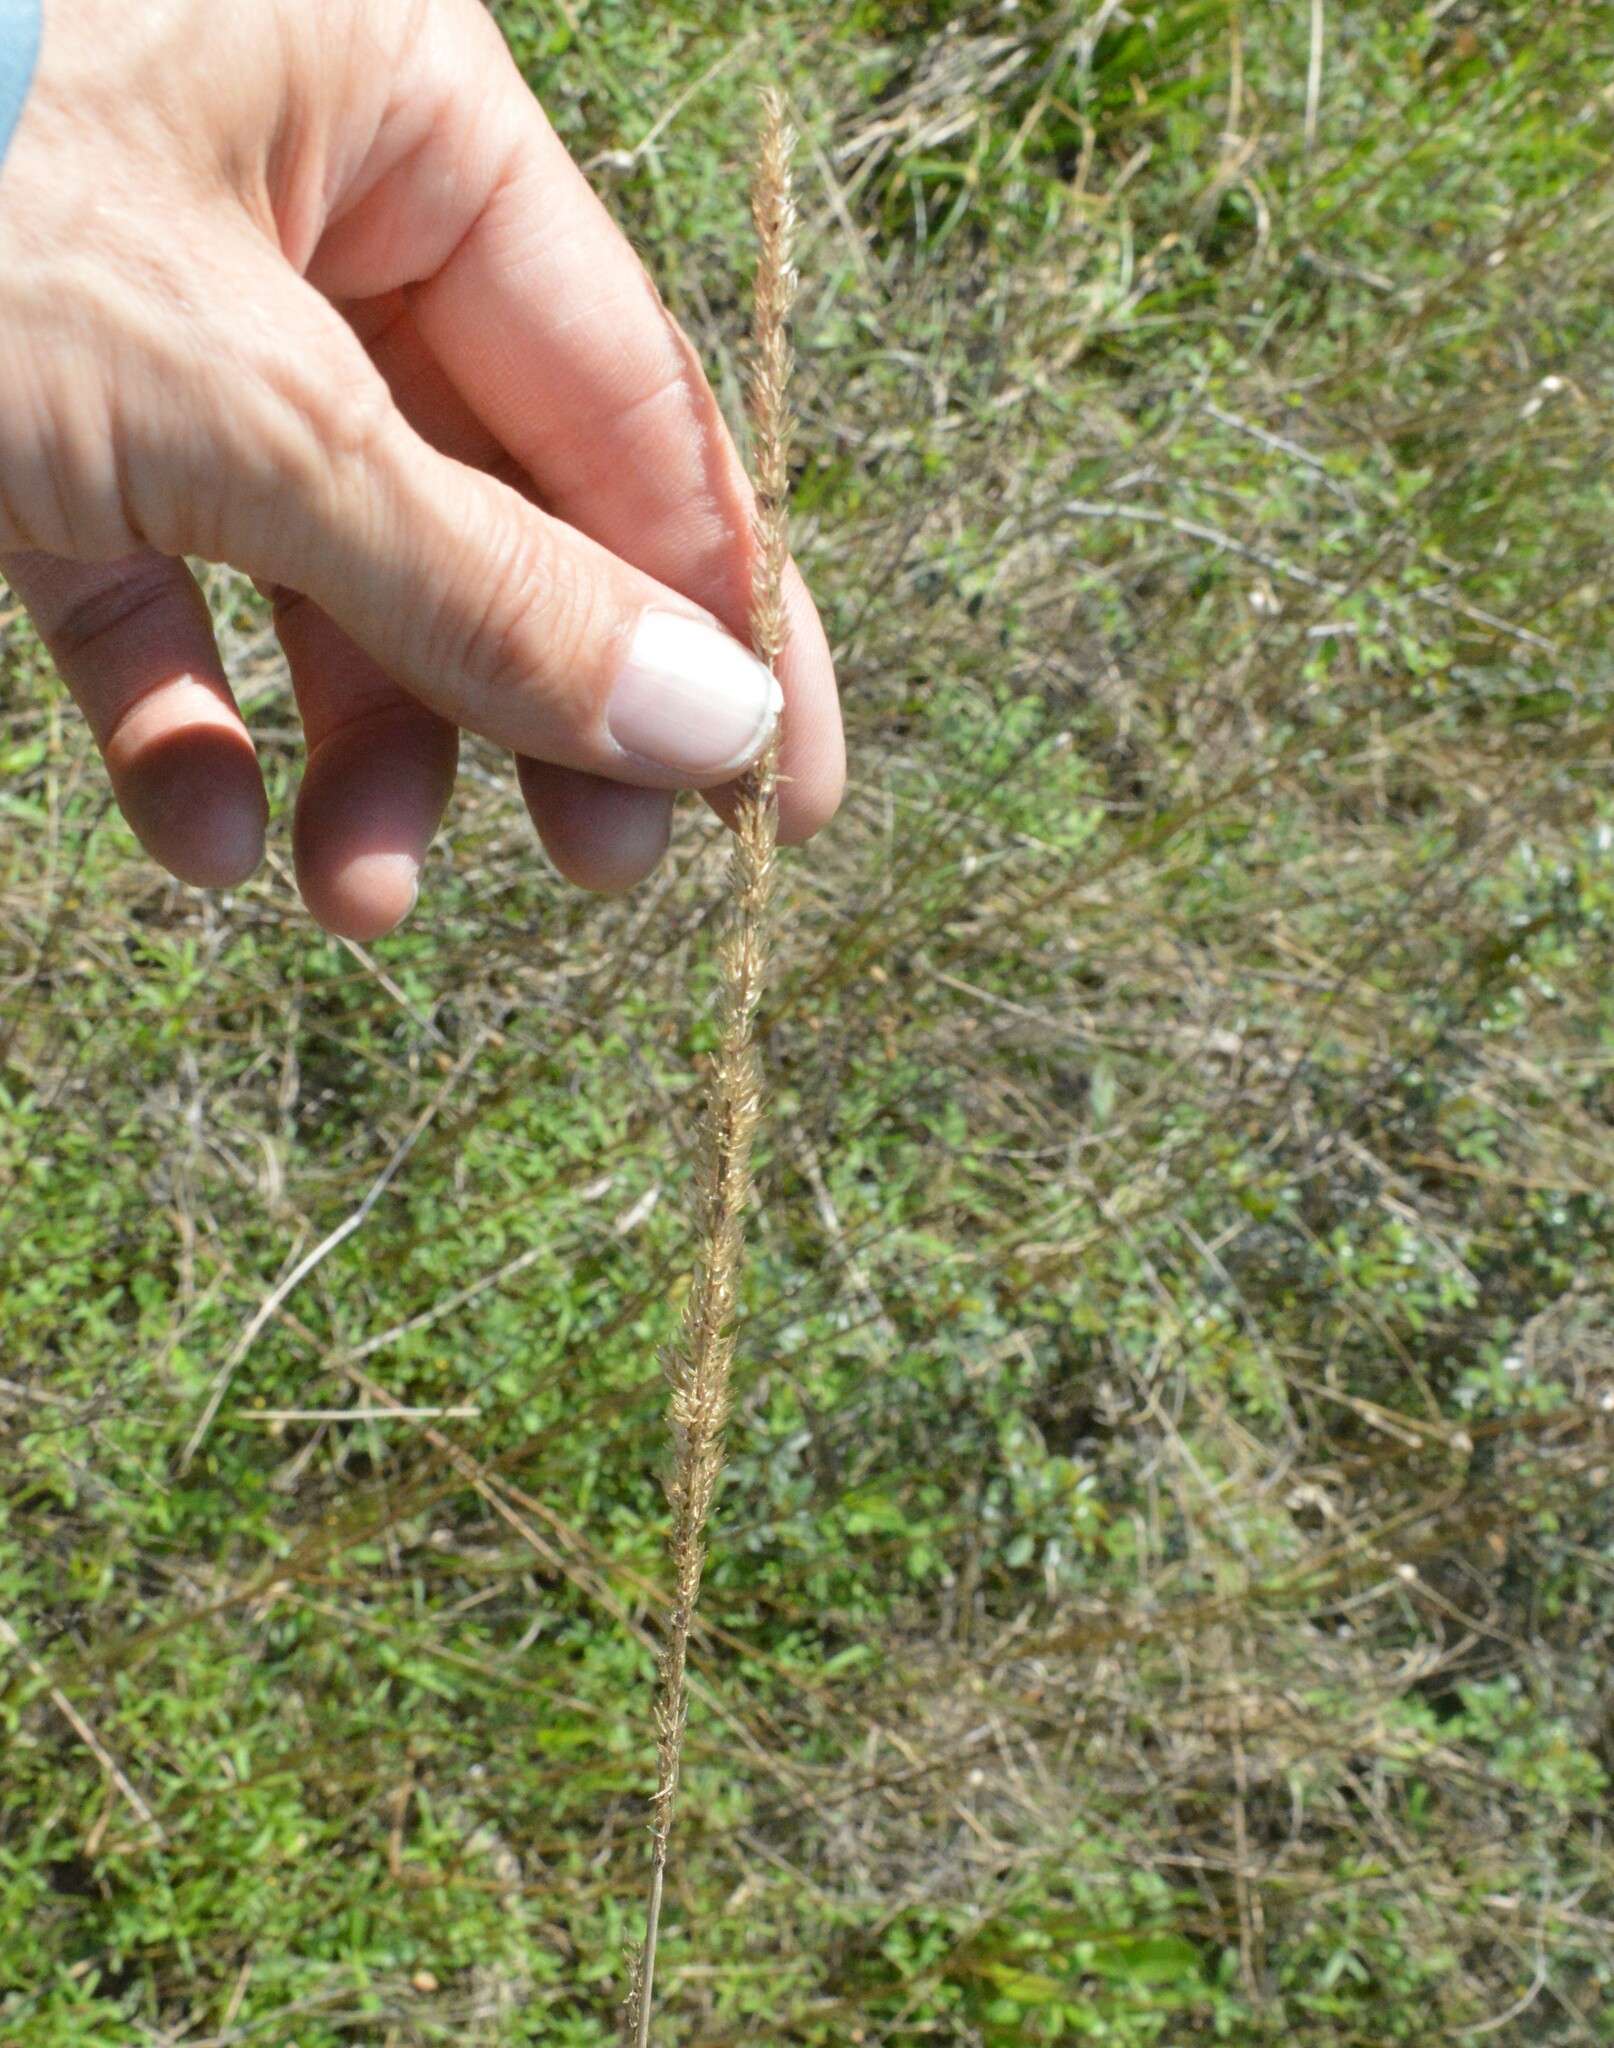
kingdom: Plantae
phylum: Tracheophyta
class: Liliopsida
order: Poales
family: Poaceae
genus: Tridens
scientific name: Tridens strictus
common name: Long-spike tridens
